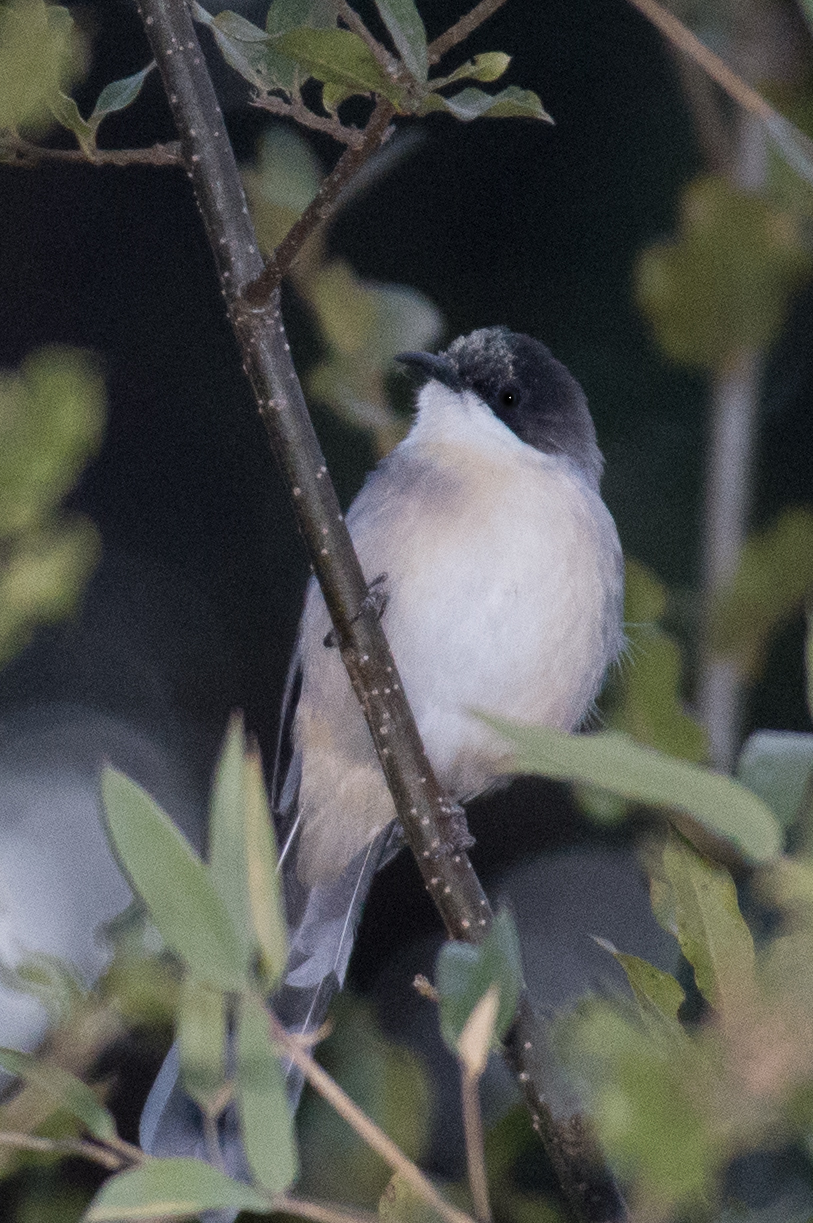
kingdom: Animalia
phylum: Chordata
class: Aves
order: Passeriformes
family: Leiothrichidae
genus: Heterophasia
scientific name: Heterophasia gracilis
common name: Grey sibia
